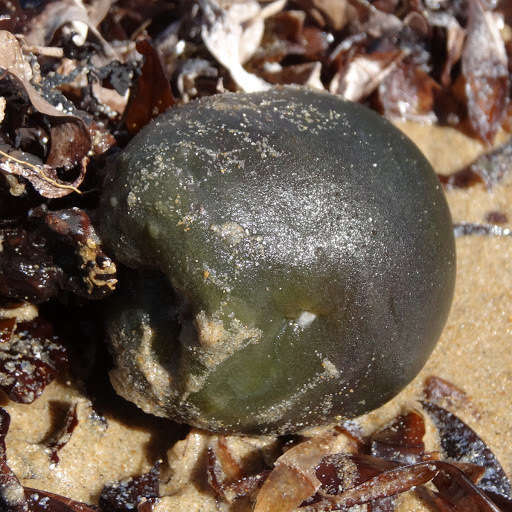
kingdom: Plantae
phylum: Chlorophyta
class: Ulvophyceae
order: Bryopsidales
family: Codiaceae
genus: Codium
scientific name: Codium
